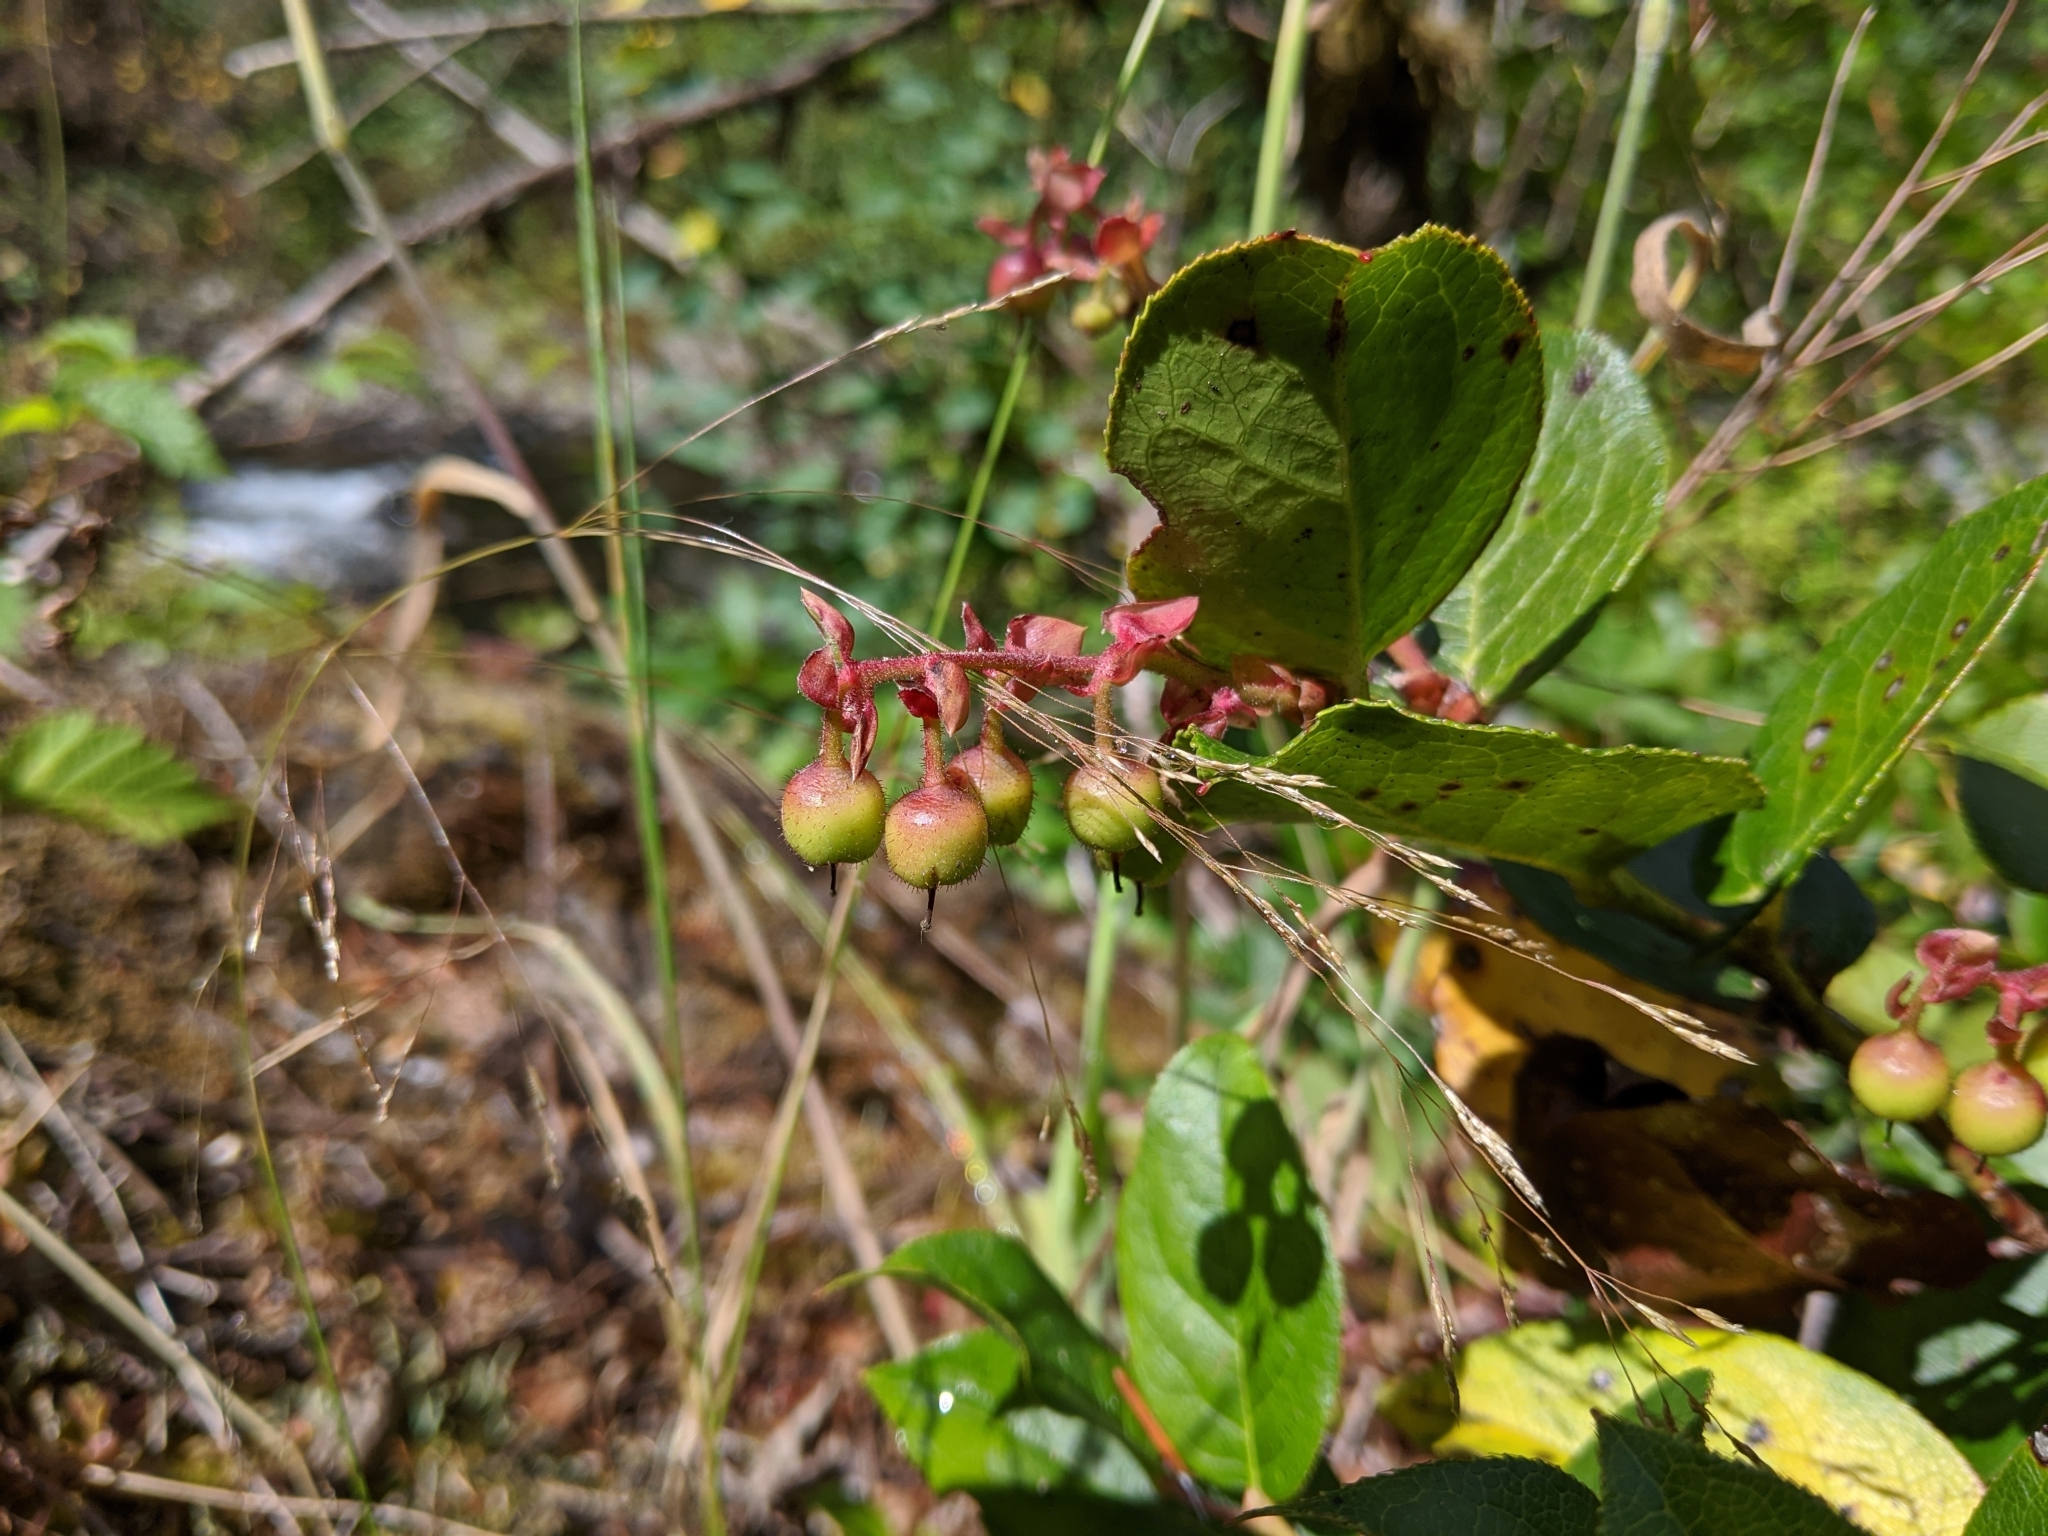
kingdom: Plantae
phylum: Tracheophyta
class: Magnoliopsida
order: Ericales
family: Ericaceae
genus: Gaultheria
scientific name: Gaultheria shallon
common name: Shallon
